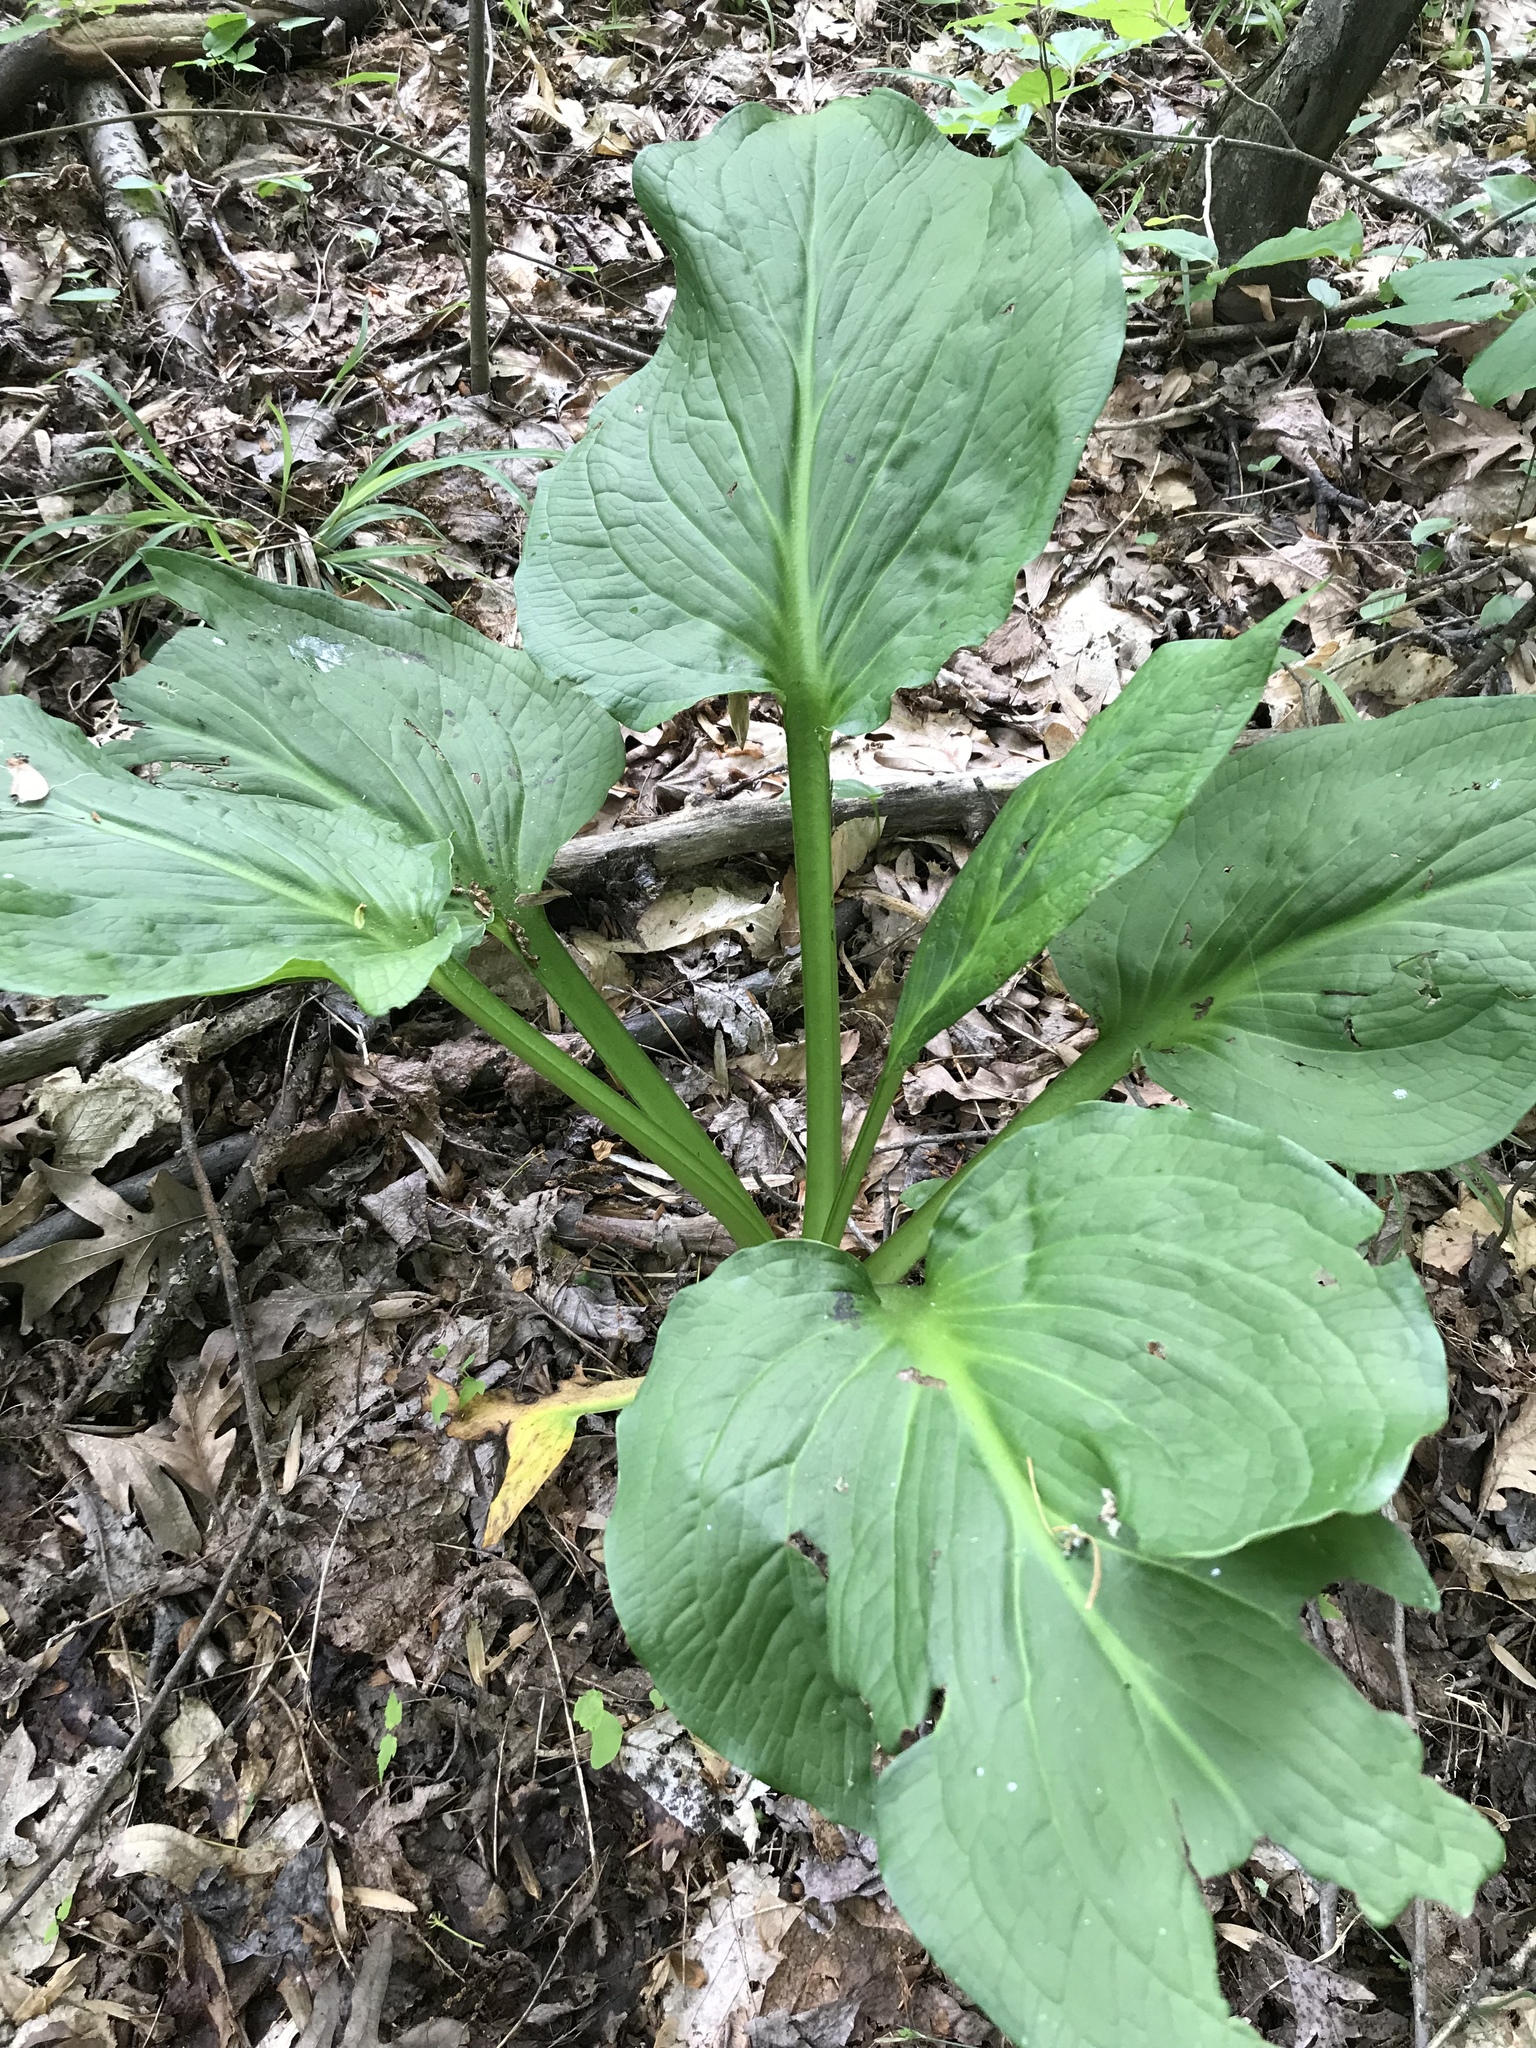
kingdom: Plantae
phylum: Tracheophyta
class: Liliopsida
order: Alismatales
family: Araceae
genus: Symplocarpus
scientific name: Symplocarpus foetidus
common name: Eastern skunk cabbage
